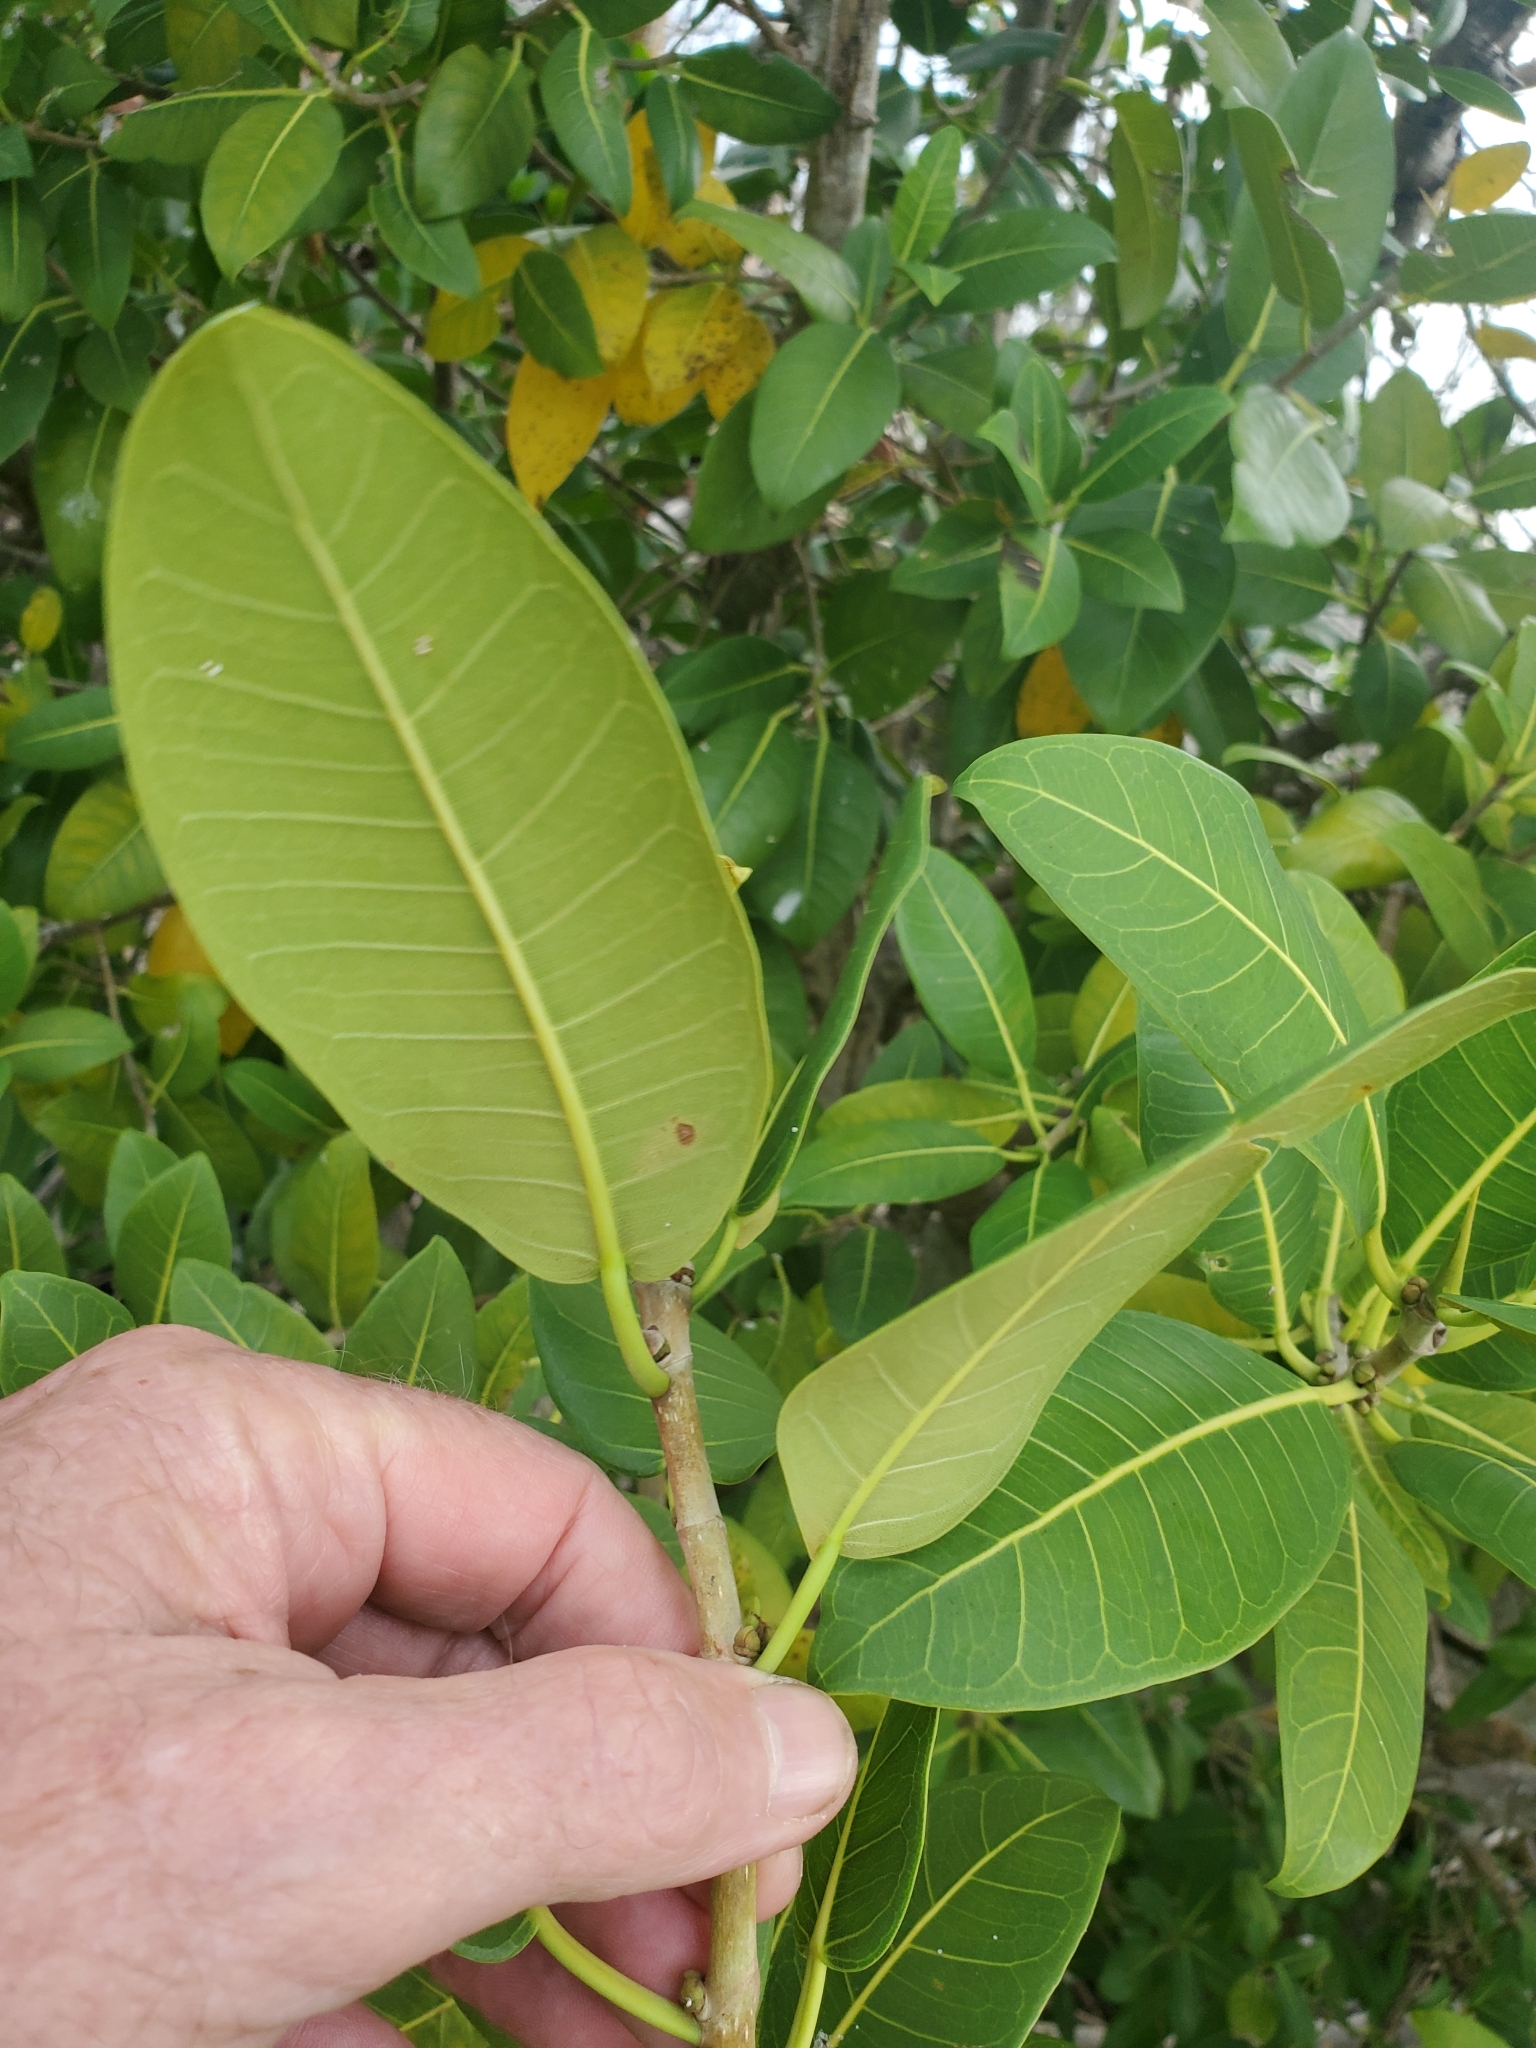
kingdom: Plantae
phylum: Tracheophyta
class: Magnoliopsida
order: Rosales
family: Moraceae
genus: Ficus
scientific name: Ficus aurea
